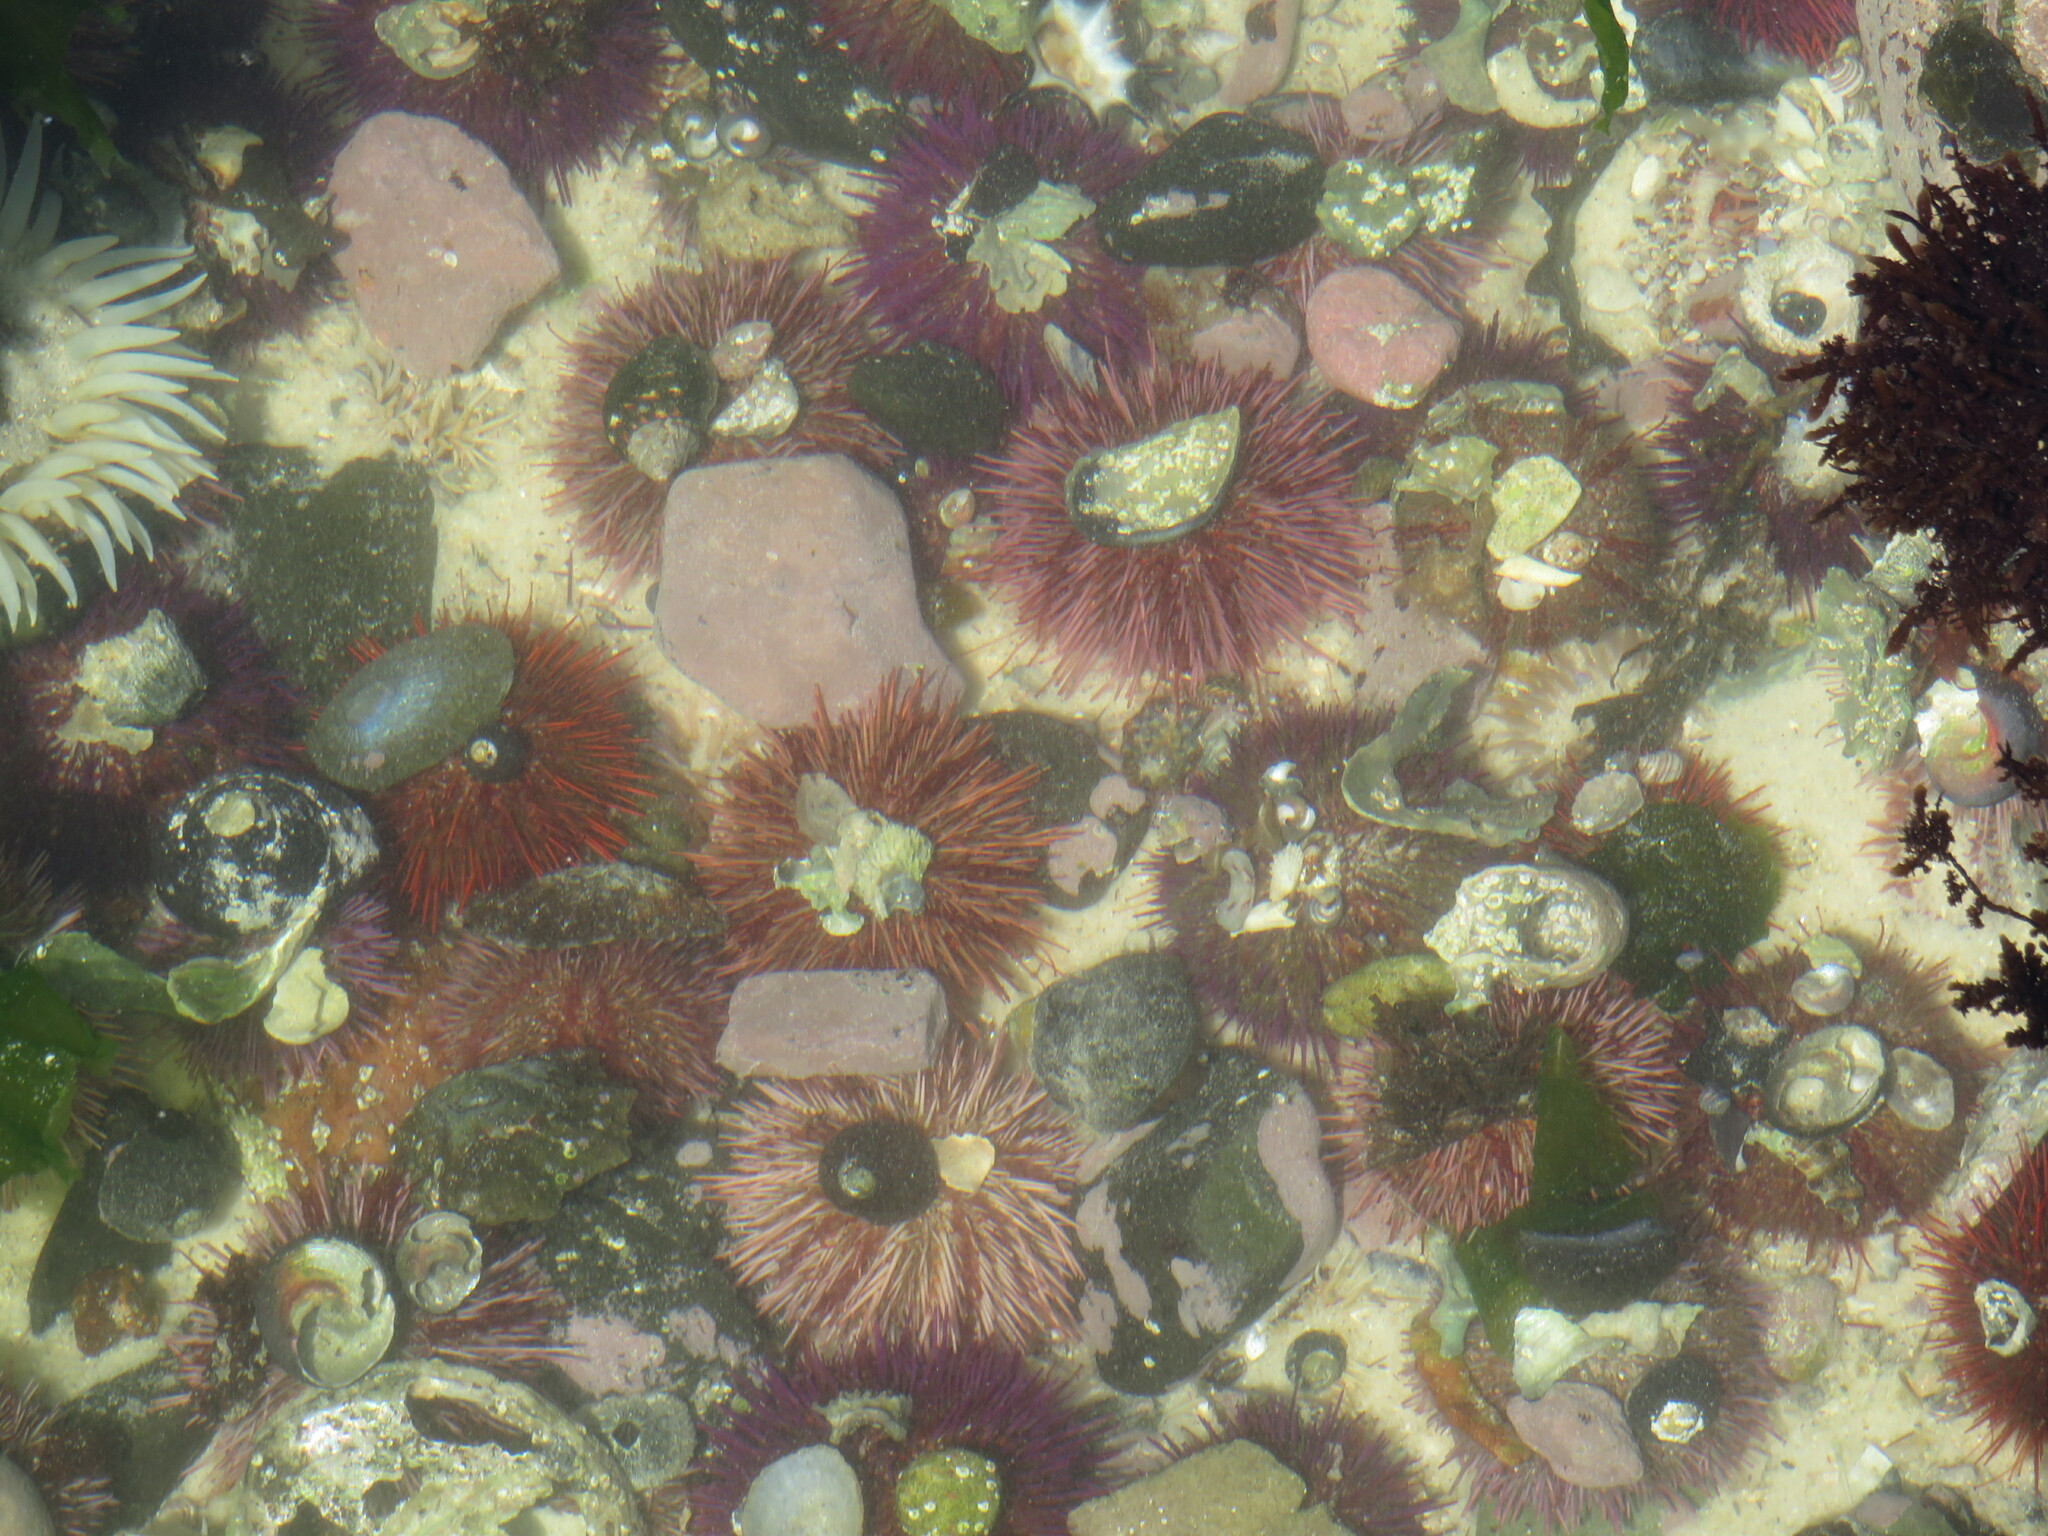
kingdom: Animalia
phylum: Echinodermata
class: Echinoidea
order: Camarodonta
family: Parechinidae
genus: Parechinus
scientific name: Parechinus angulosus
